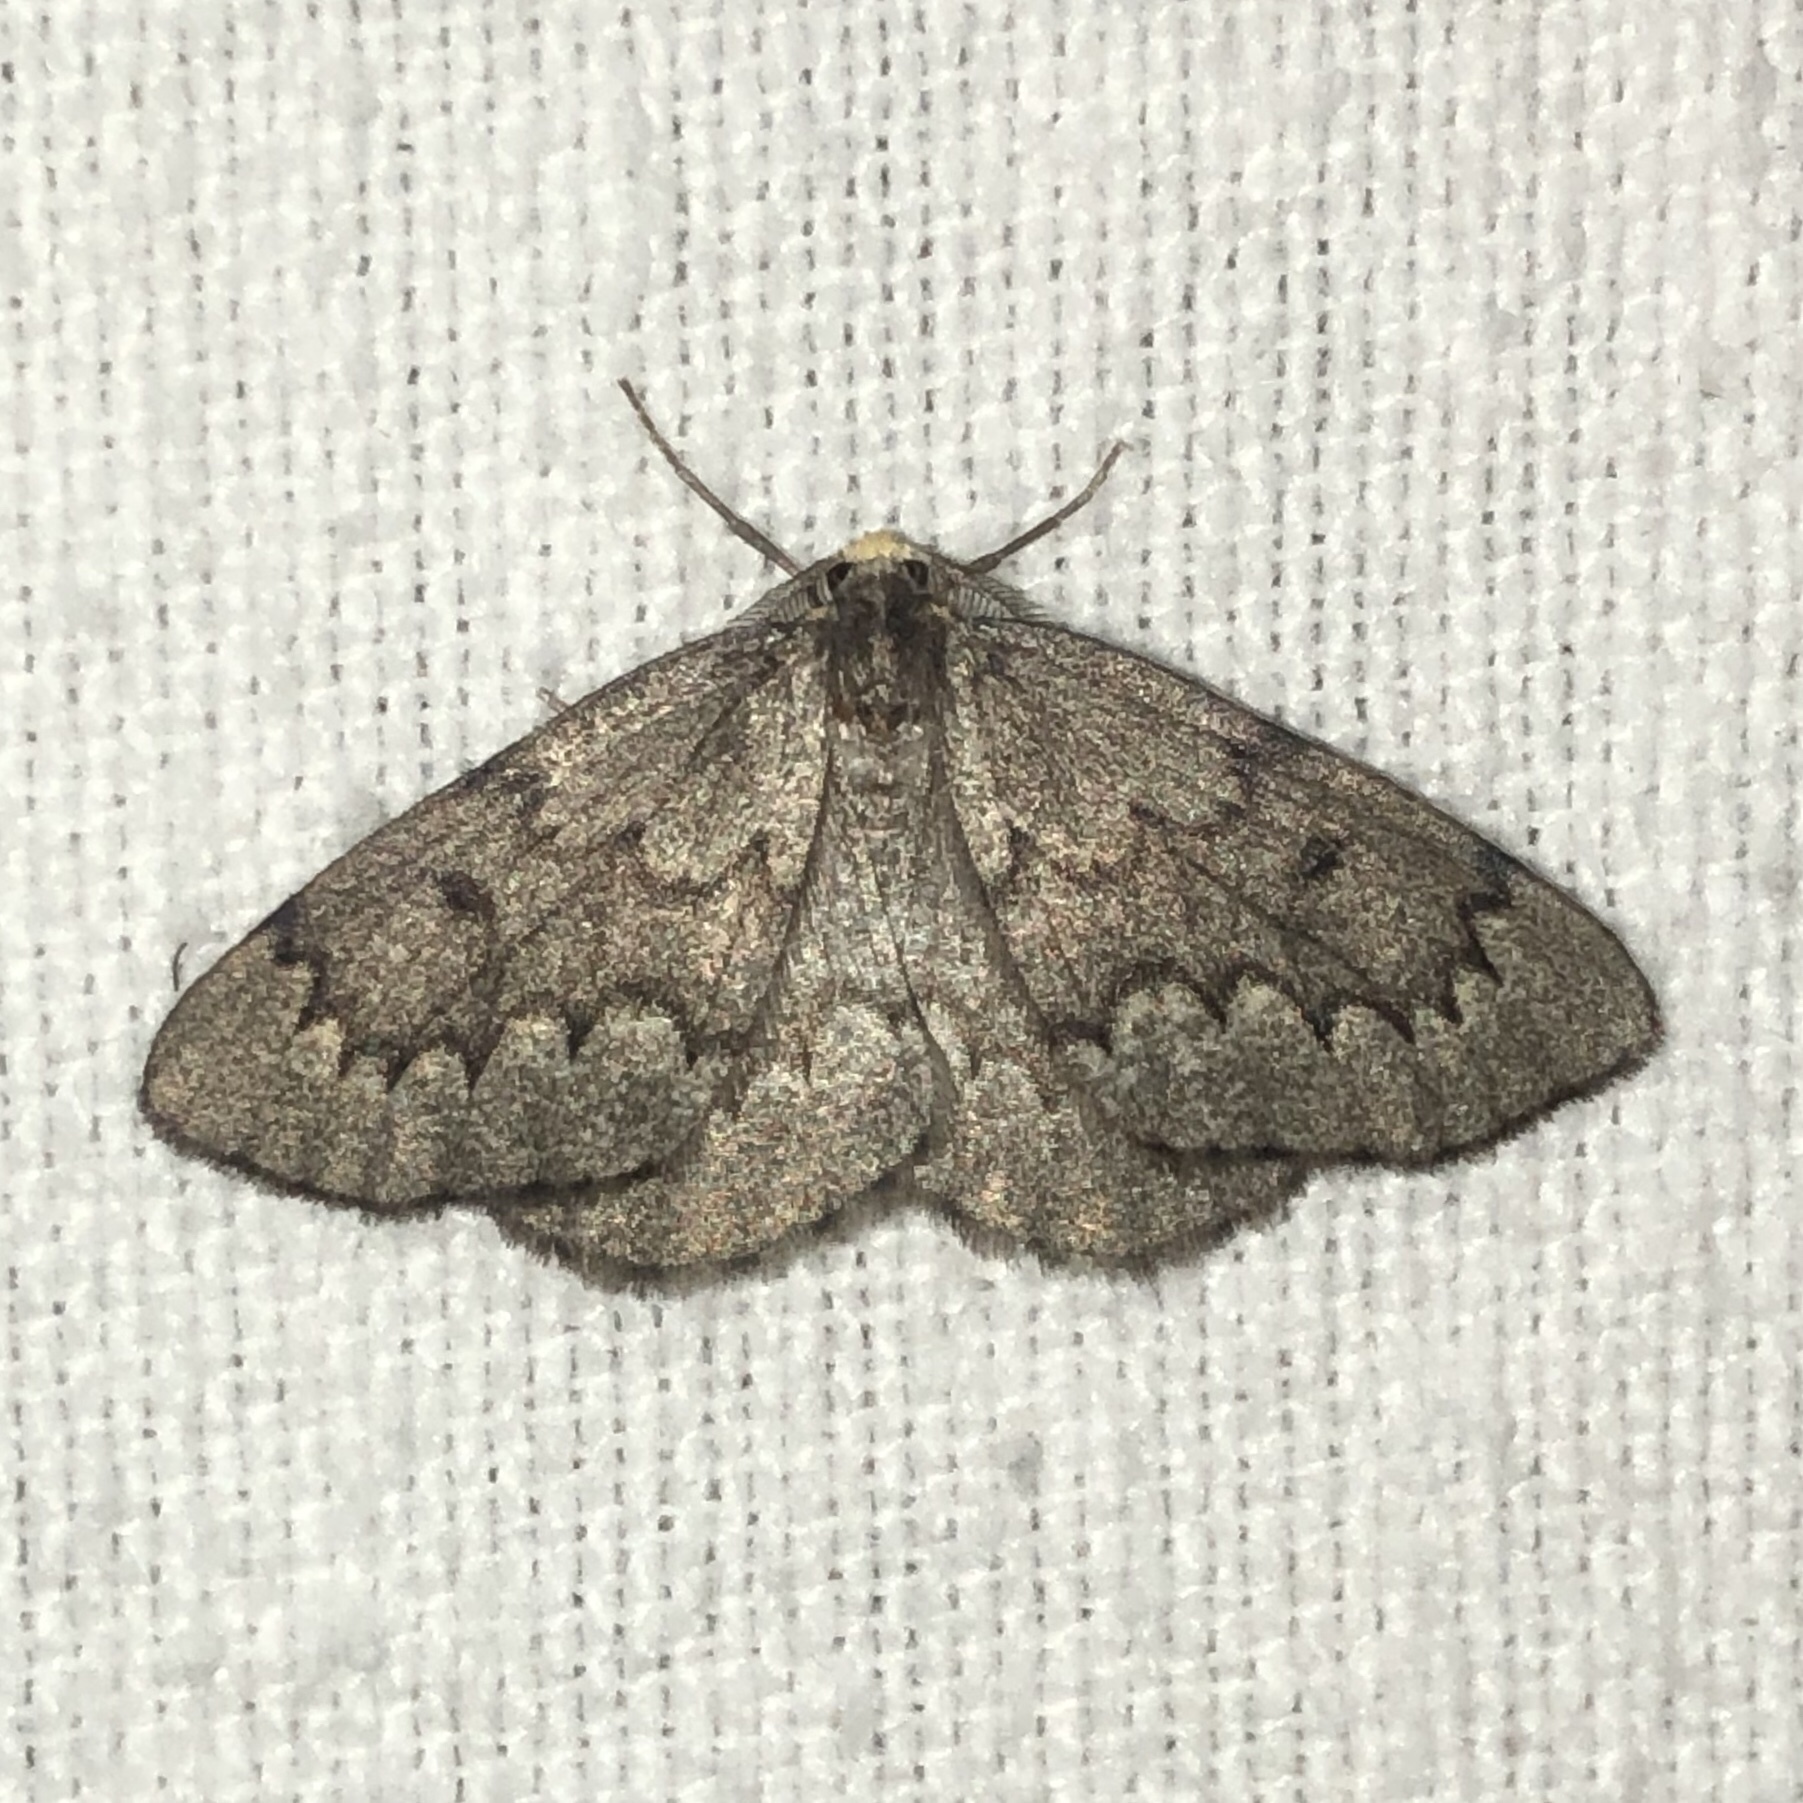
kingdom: Animalia
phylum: Arthropoda
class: Insecta
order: Lepidoptera
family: Geometridae
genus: Nepytia
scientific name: Nepytia canosaria
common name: False hemlock looper
